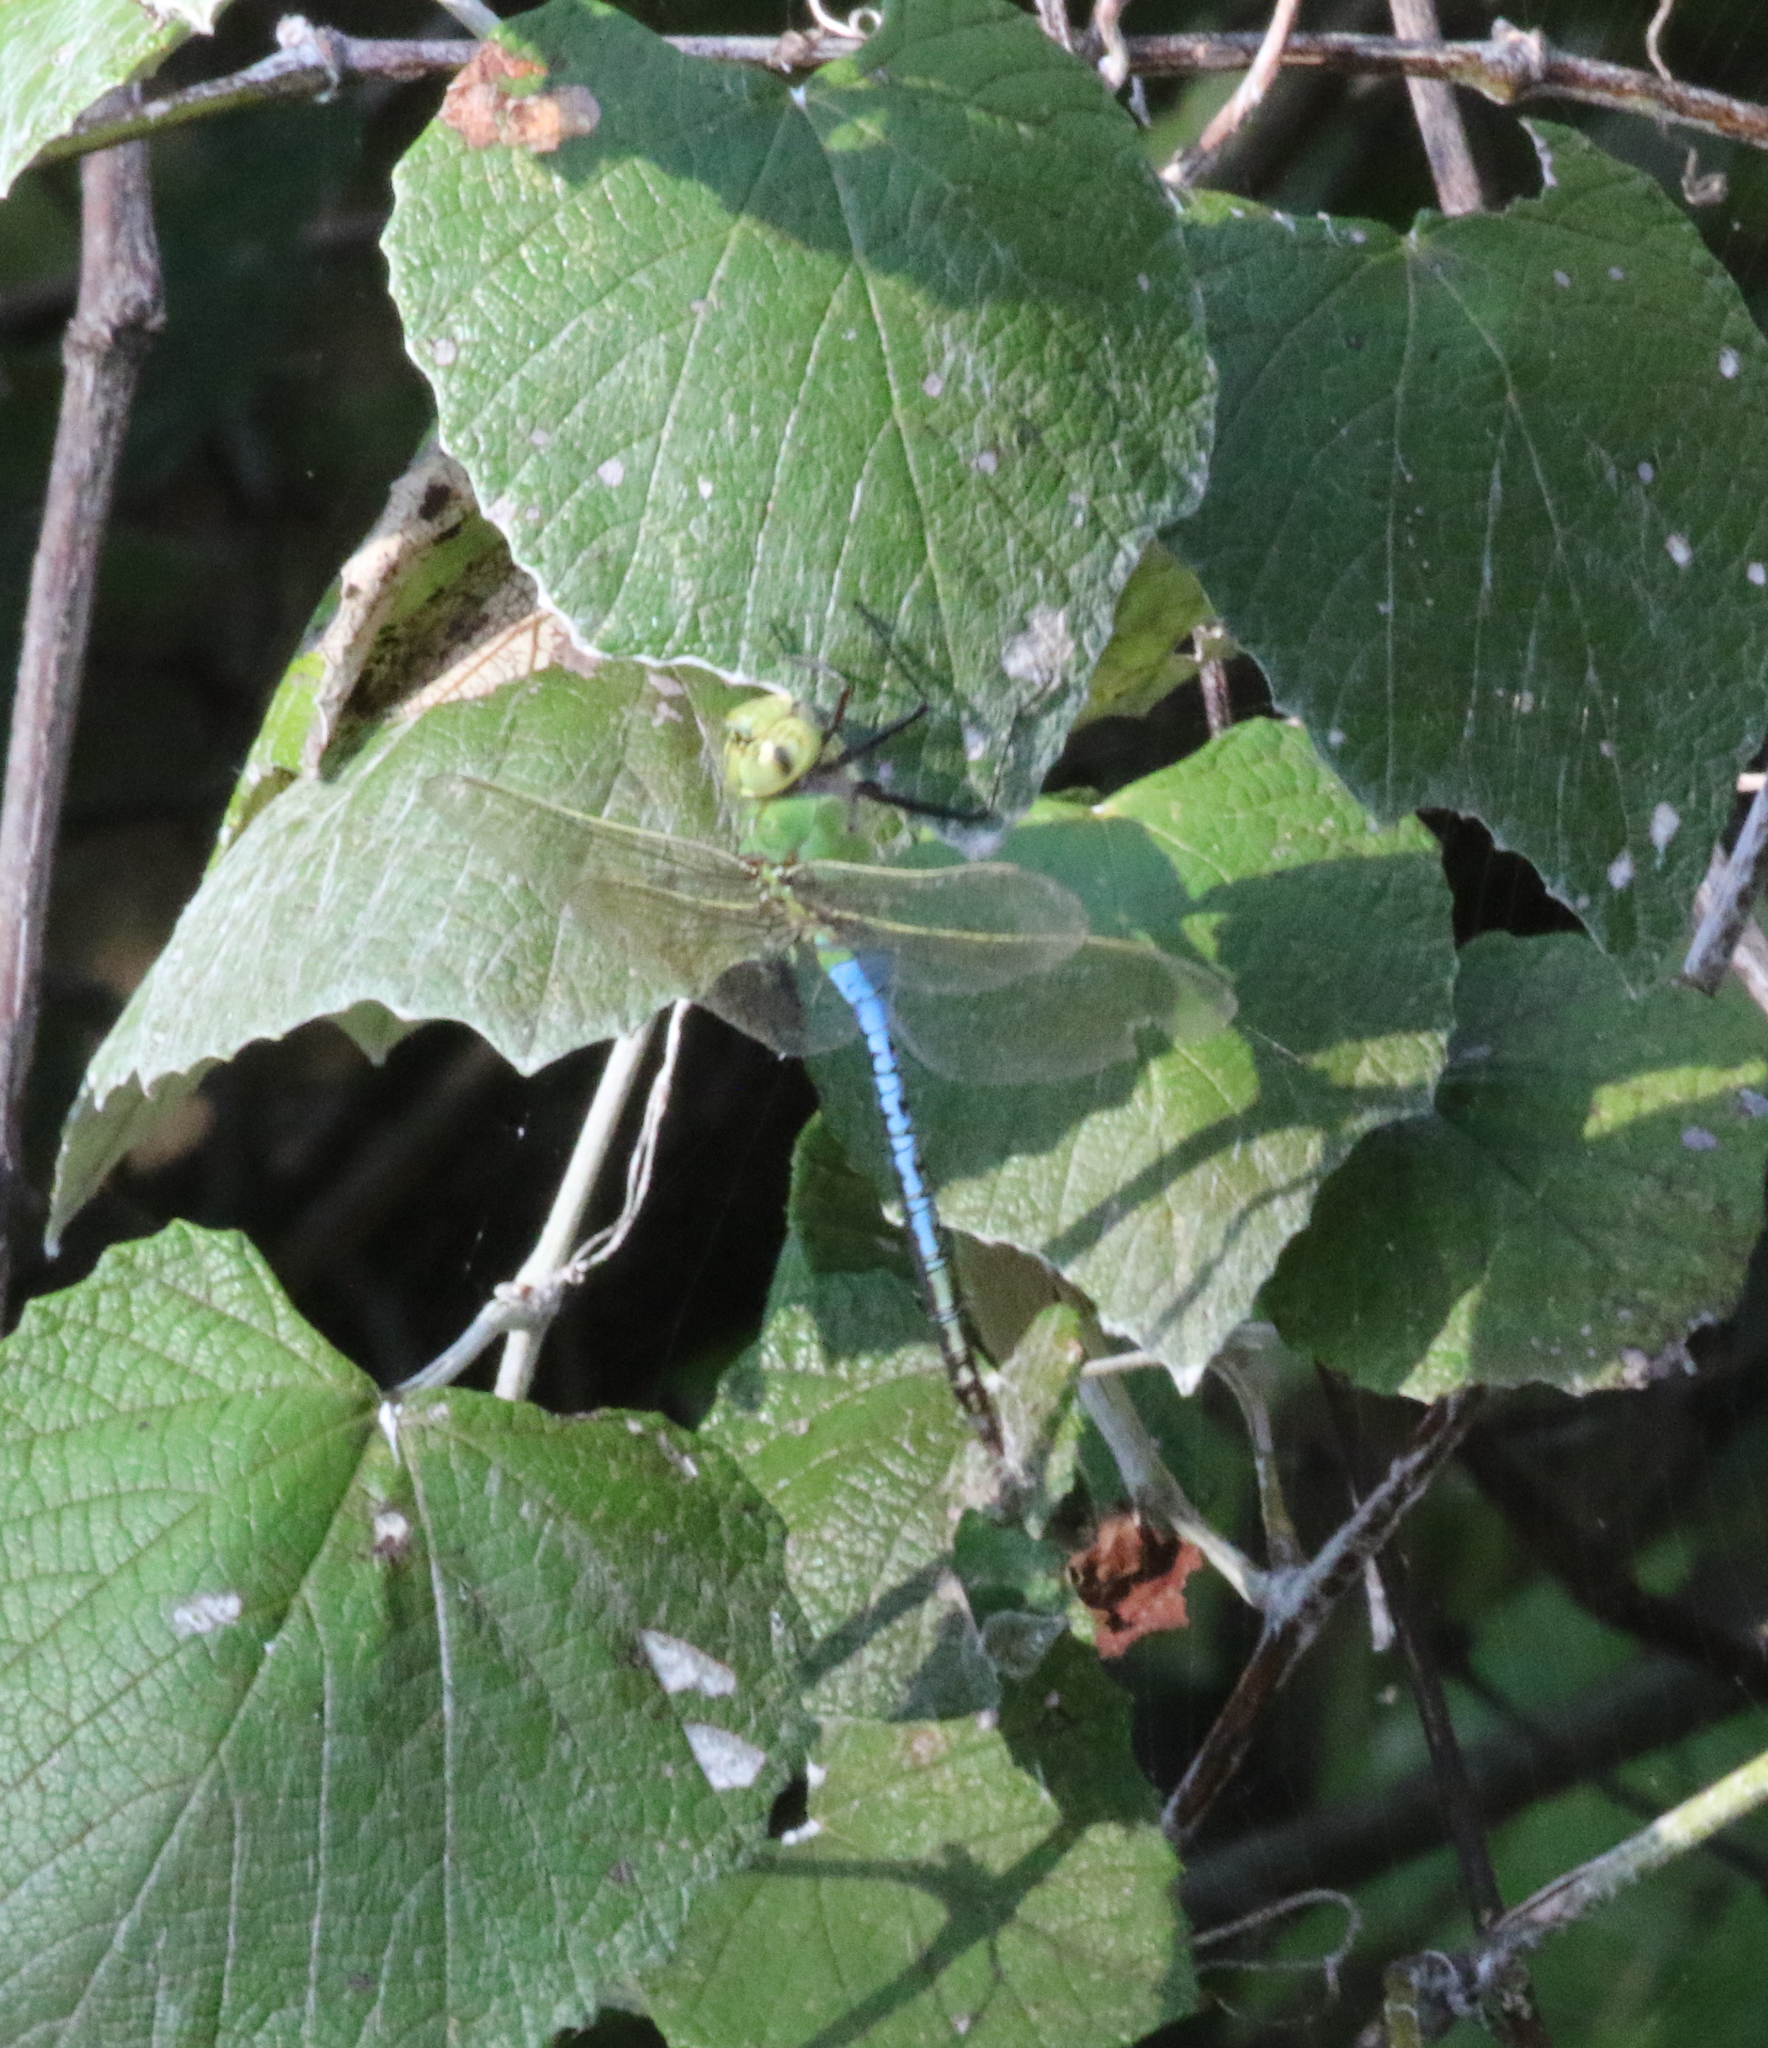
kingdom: Animalia
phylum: Arthropoda
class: Insecta
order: Odonata
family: Aeshnidae
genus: Anax
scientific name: Anax junius
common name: Common green darner
